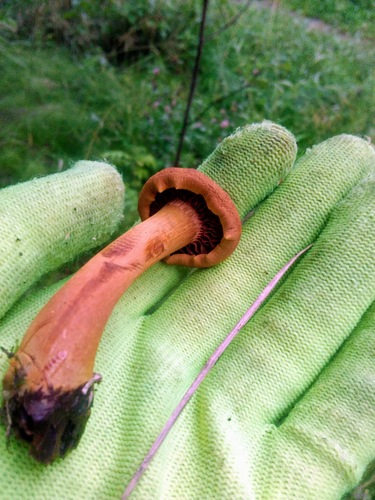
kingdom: Fungi
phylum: Basidiomycota
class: Agaricomycetes
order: Agaricales
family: Cortinariaceae
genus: Cortinarius
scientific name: Cortinarius
